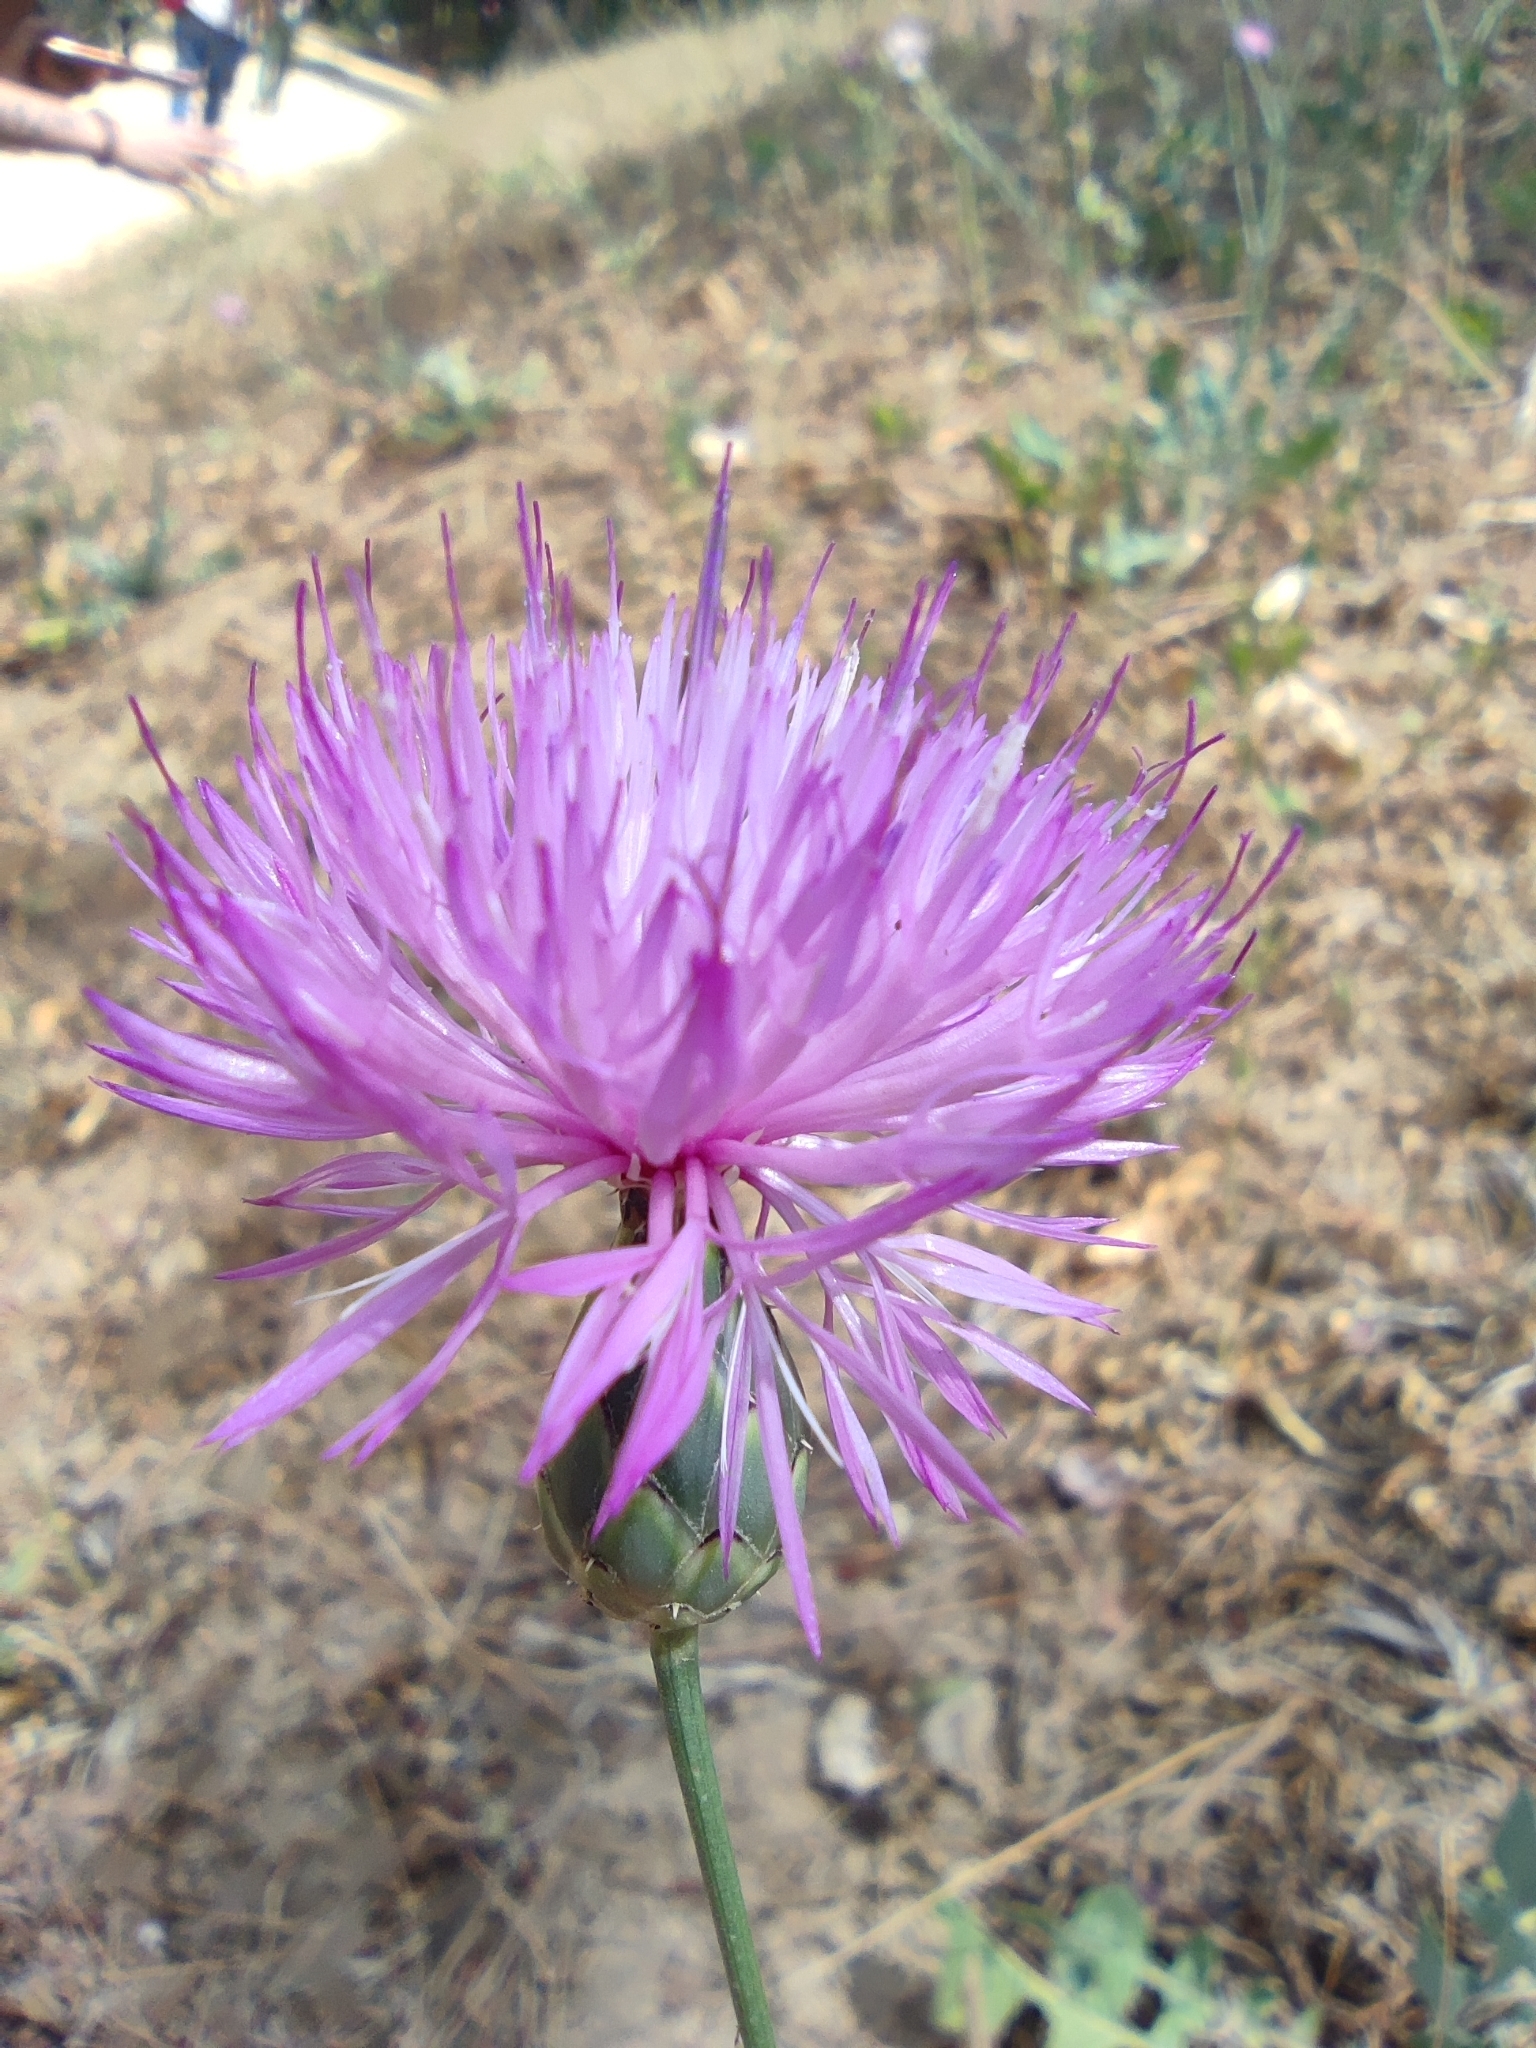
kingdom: Plantae
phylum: Tracheophyta
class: Magnoliopsida
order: Asterales
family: Asteraceae
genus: Mantisalca
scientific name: Mantisalca salmantica
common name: Dagger flower
